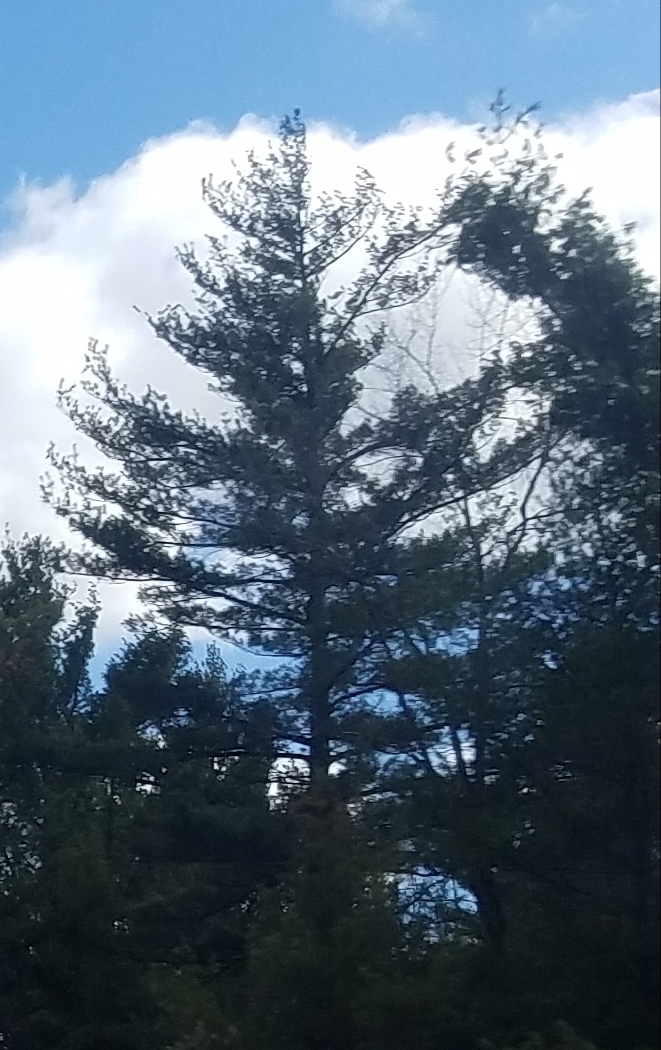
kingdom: Plantae
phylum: Tracheophyta
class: Pinopsida
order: Pinales
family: Pinaceae
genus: Pinus
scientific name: Pinus strobus
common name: Weymouth pine
